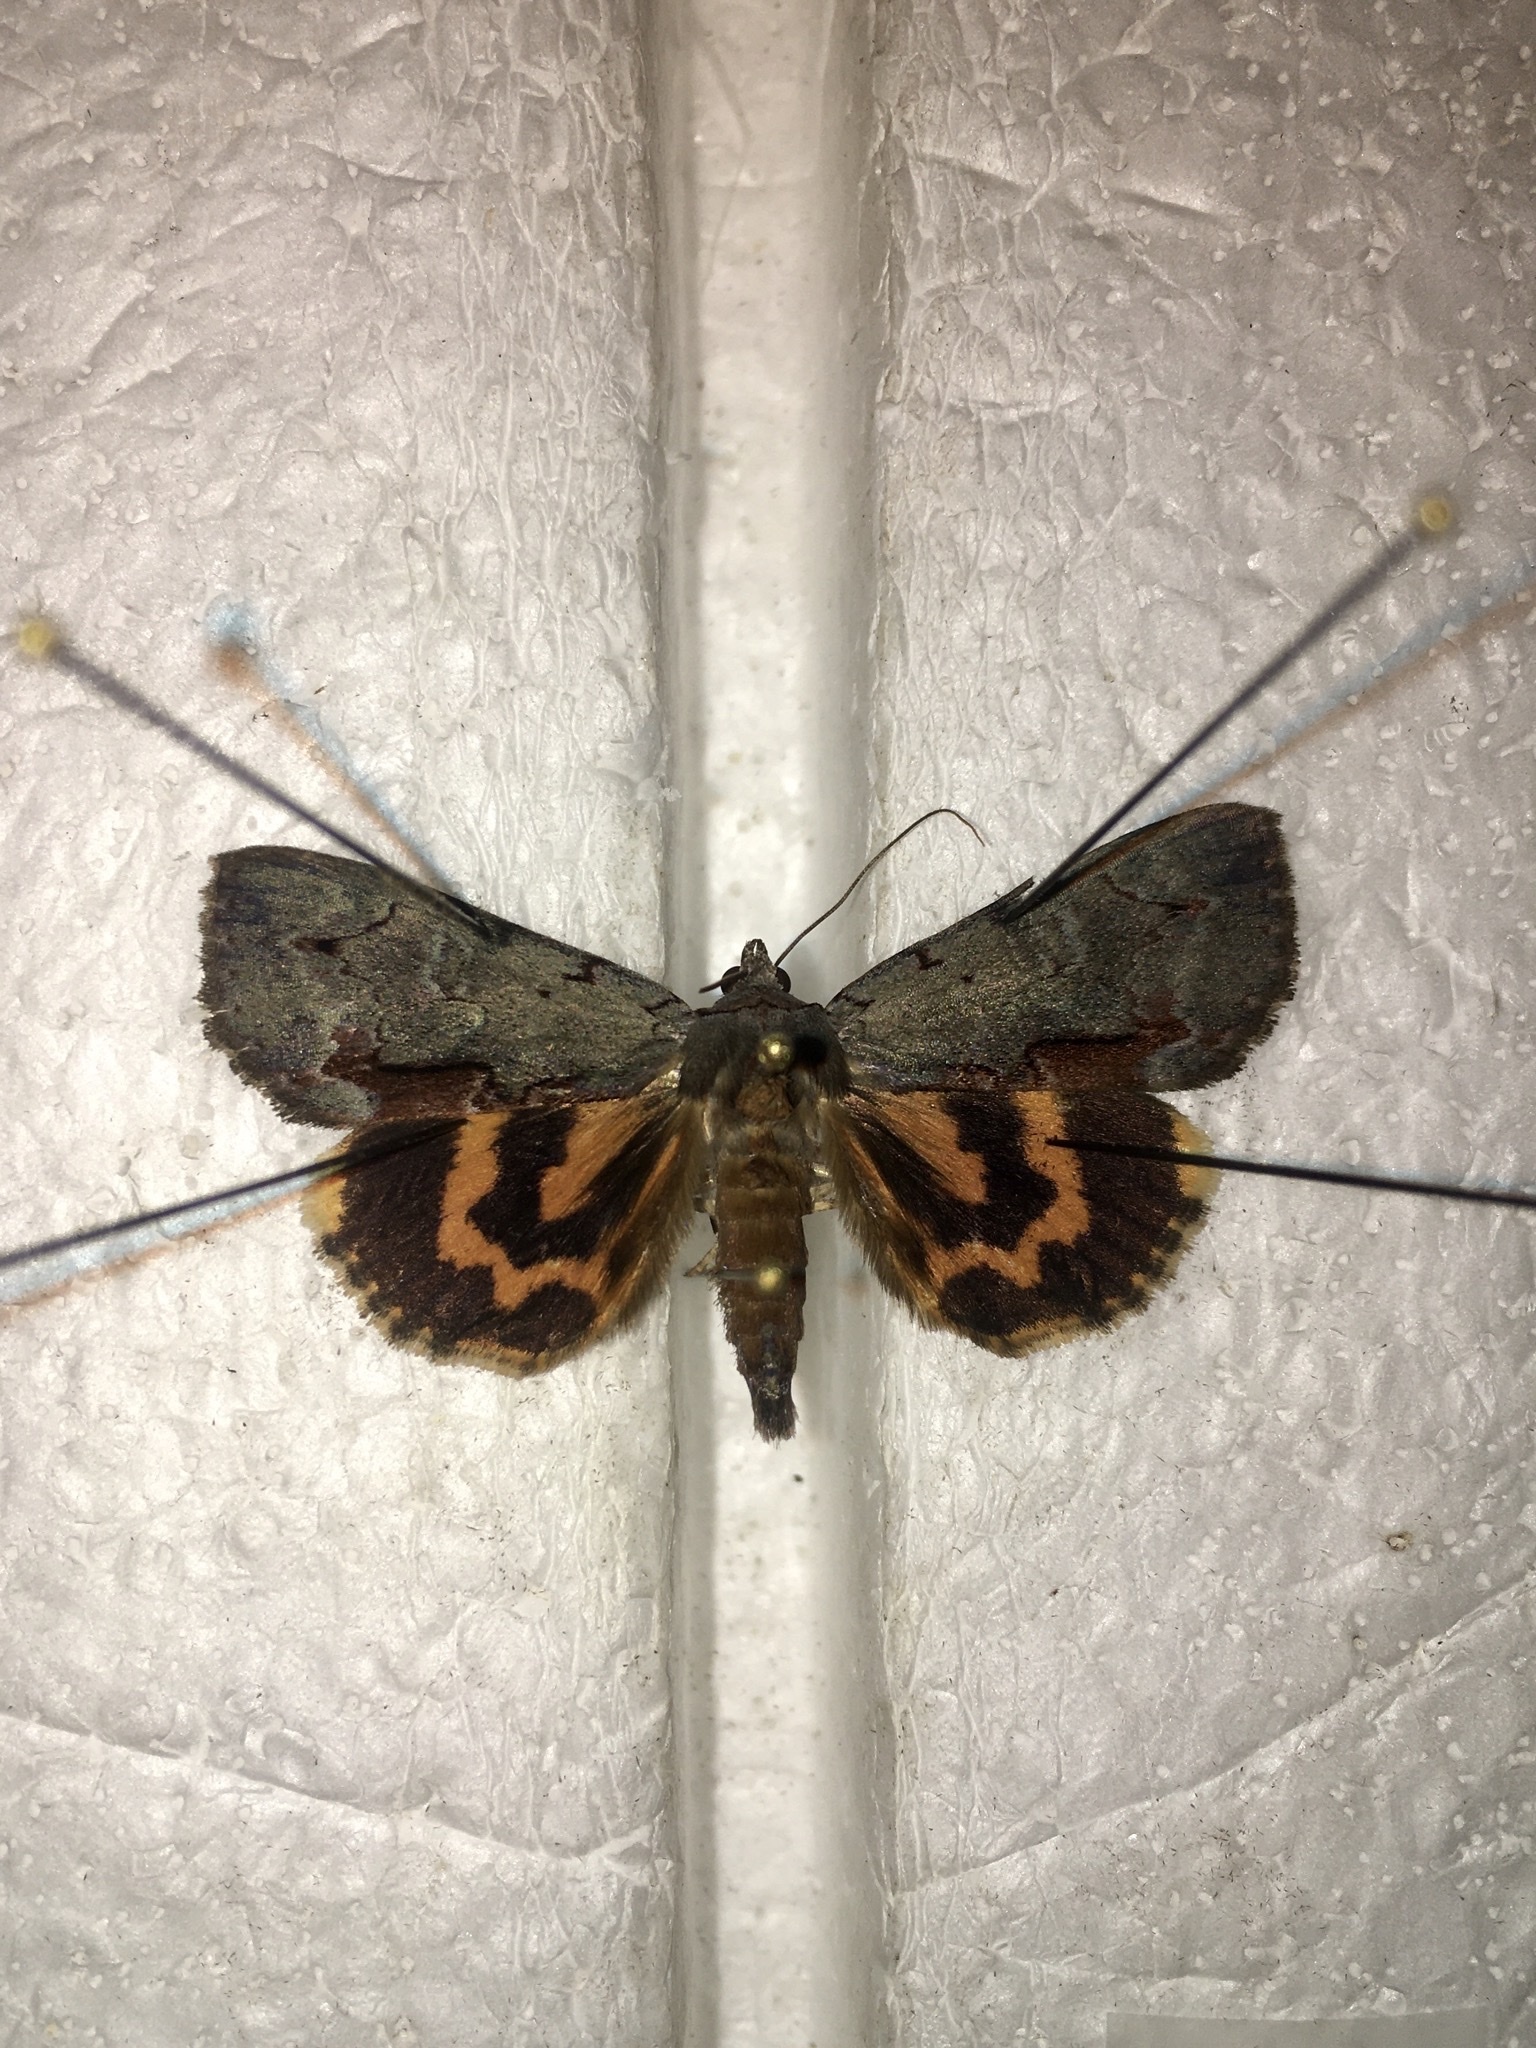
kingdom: Animalia
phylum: Arthropoda
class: Insecta
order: Lepidoptera
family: Erebidae
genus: Catocala
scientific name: Catocala grynea
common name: Woody underwing
